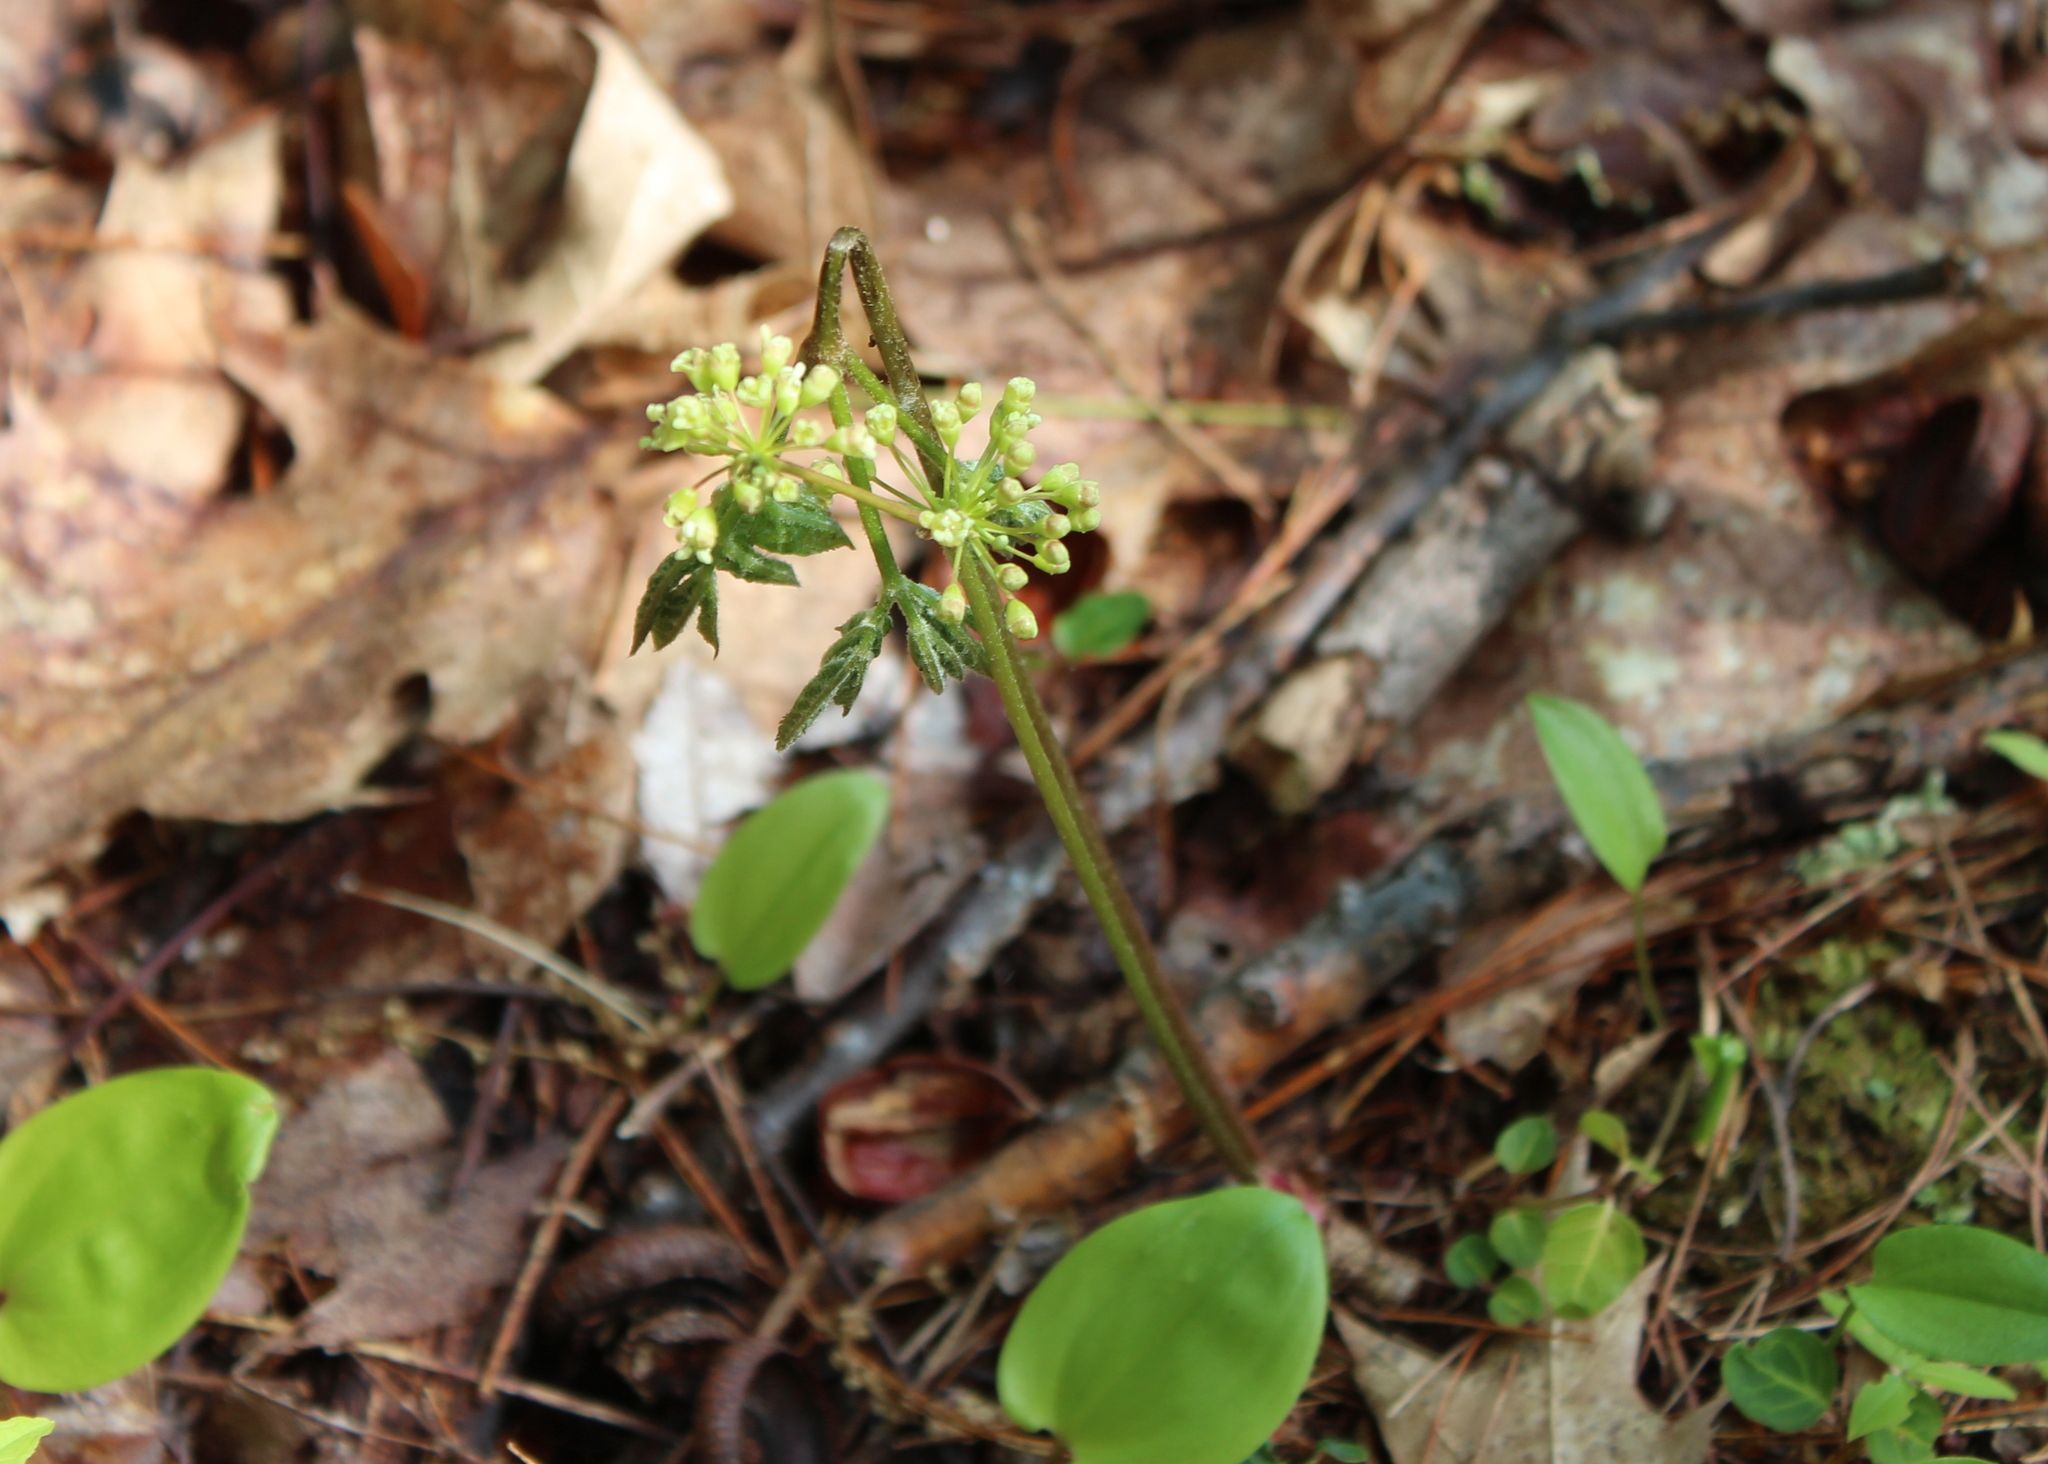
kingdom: Plantae
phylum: Tracheophyta
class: Magnoliopsida
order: Apiales
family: Araliaceae
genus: Aralia
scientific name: Aralia nudicaulis
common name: Wild sarsaparilla
